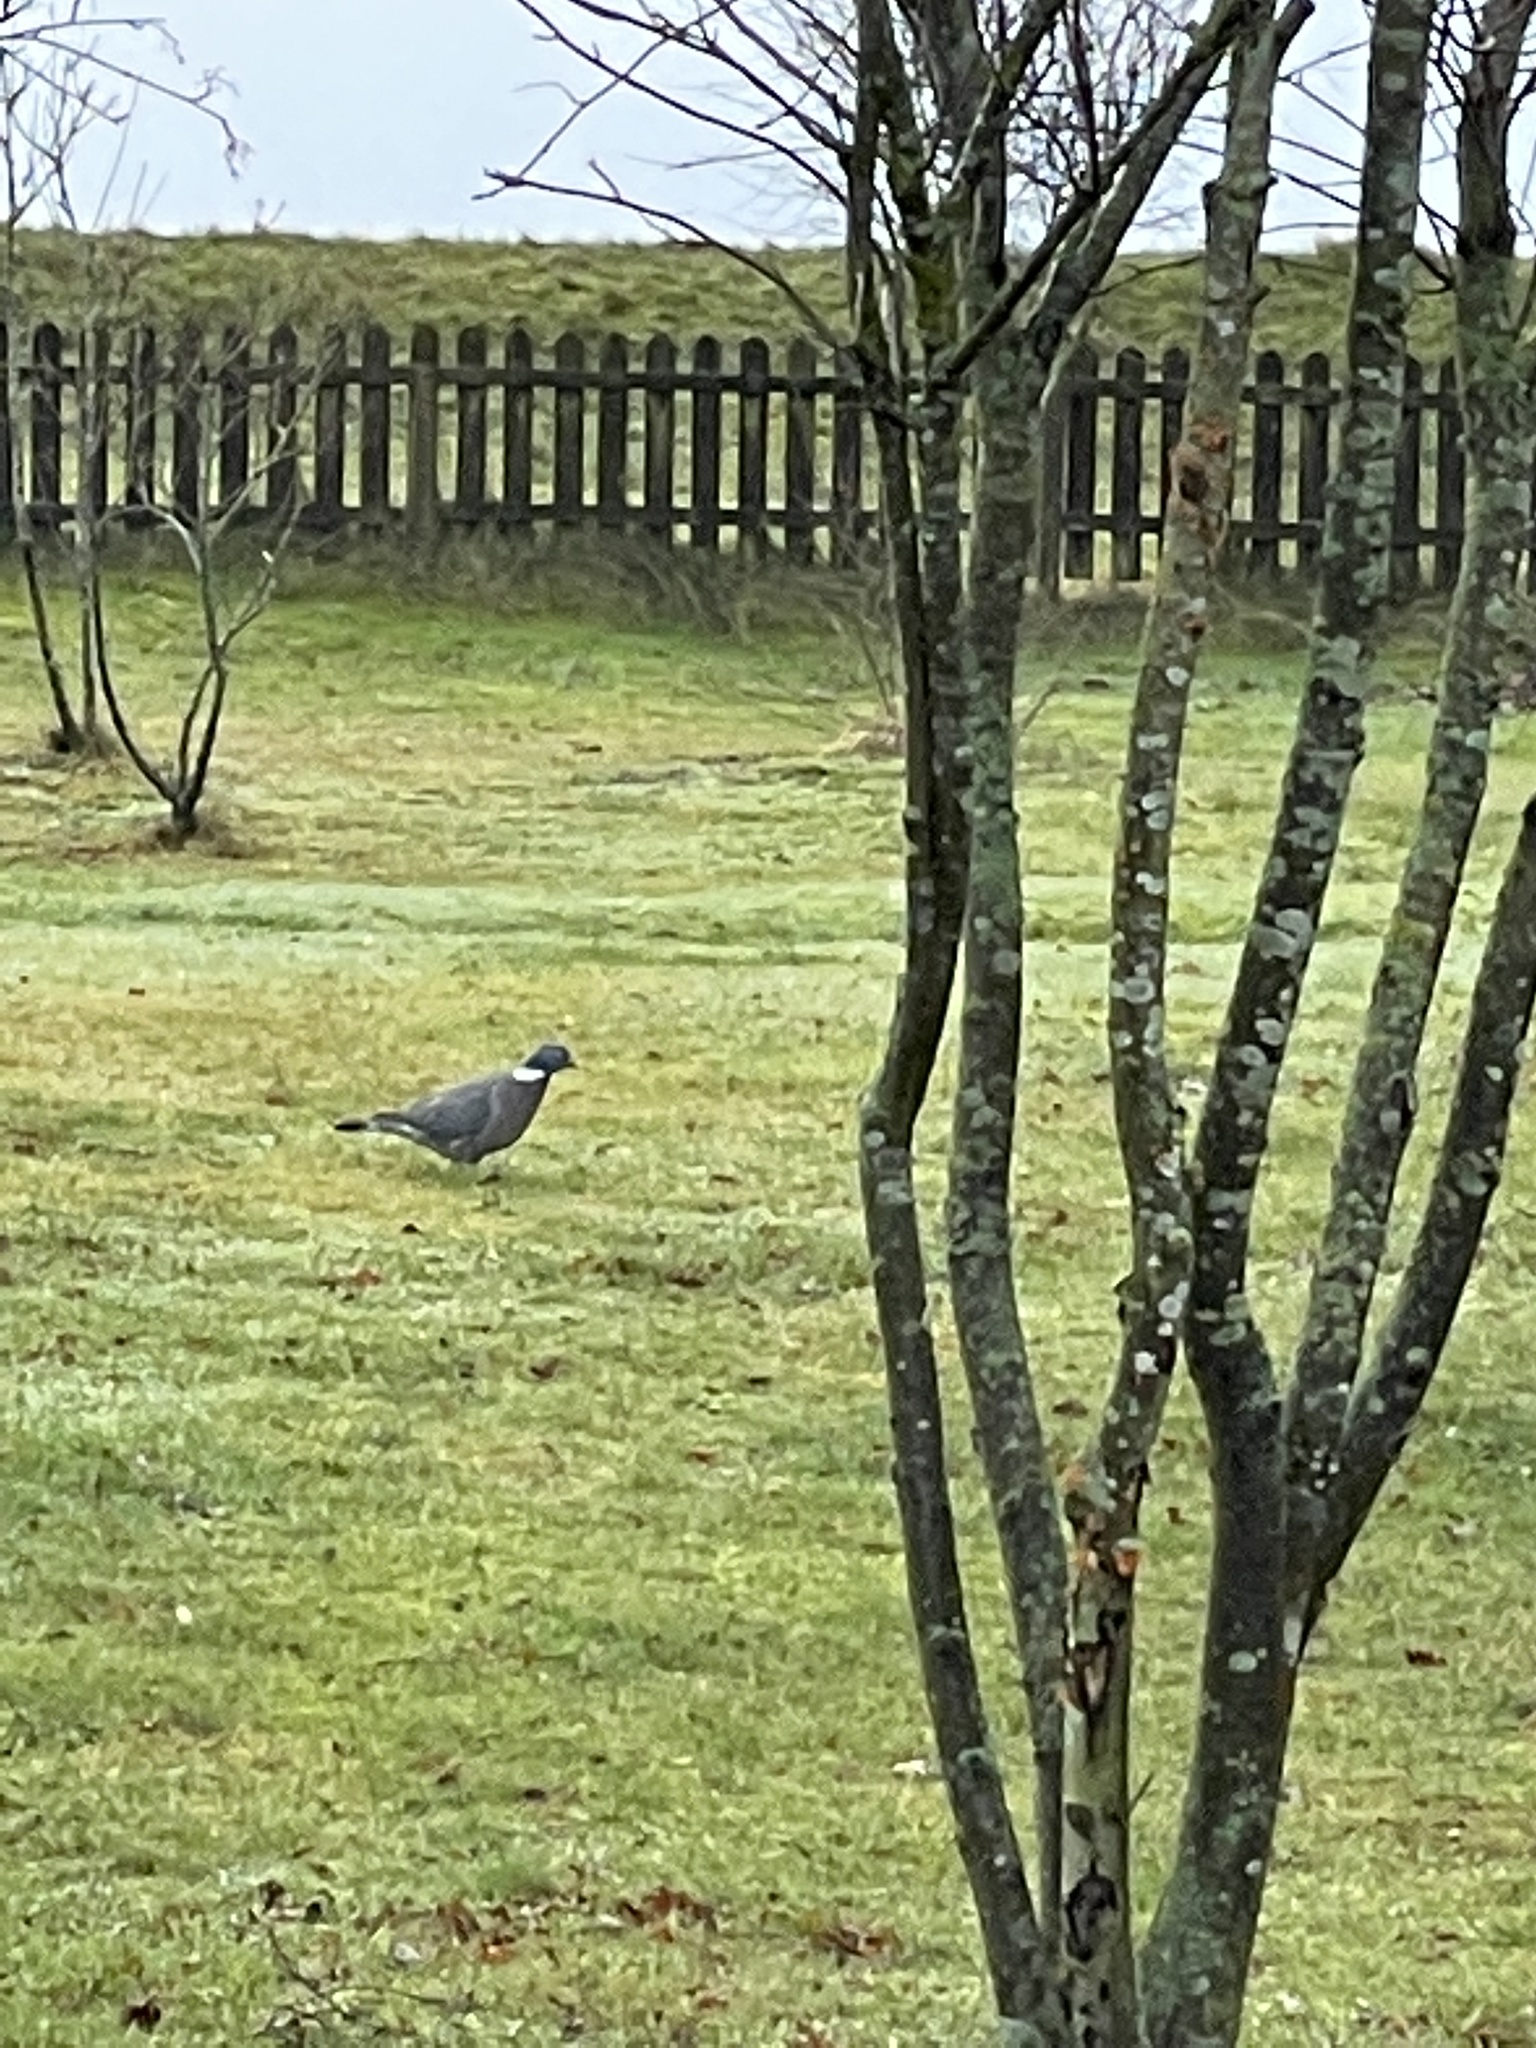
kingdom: Animalia
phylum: Chordata
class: Aves
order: Columbiformes
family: Columbidae
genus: Columba
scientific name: Columba palumbus
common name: Common wood pigeon
